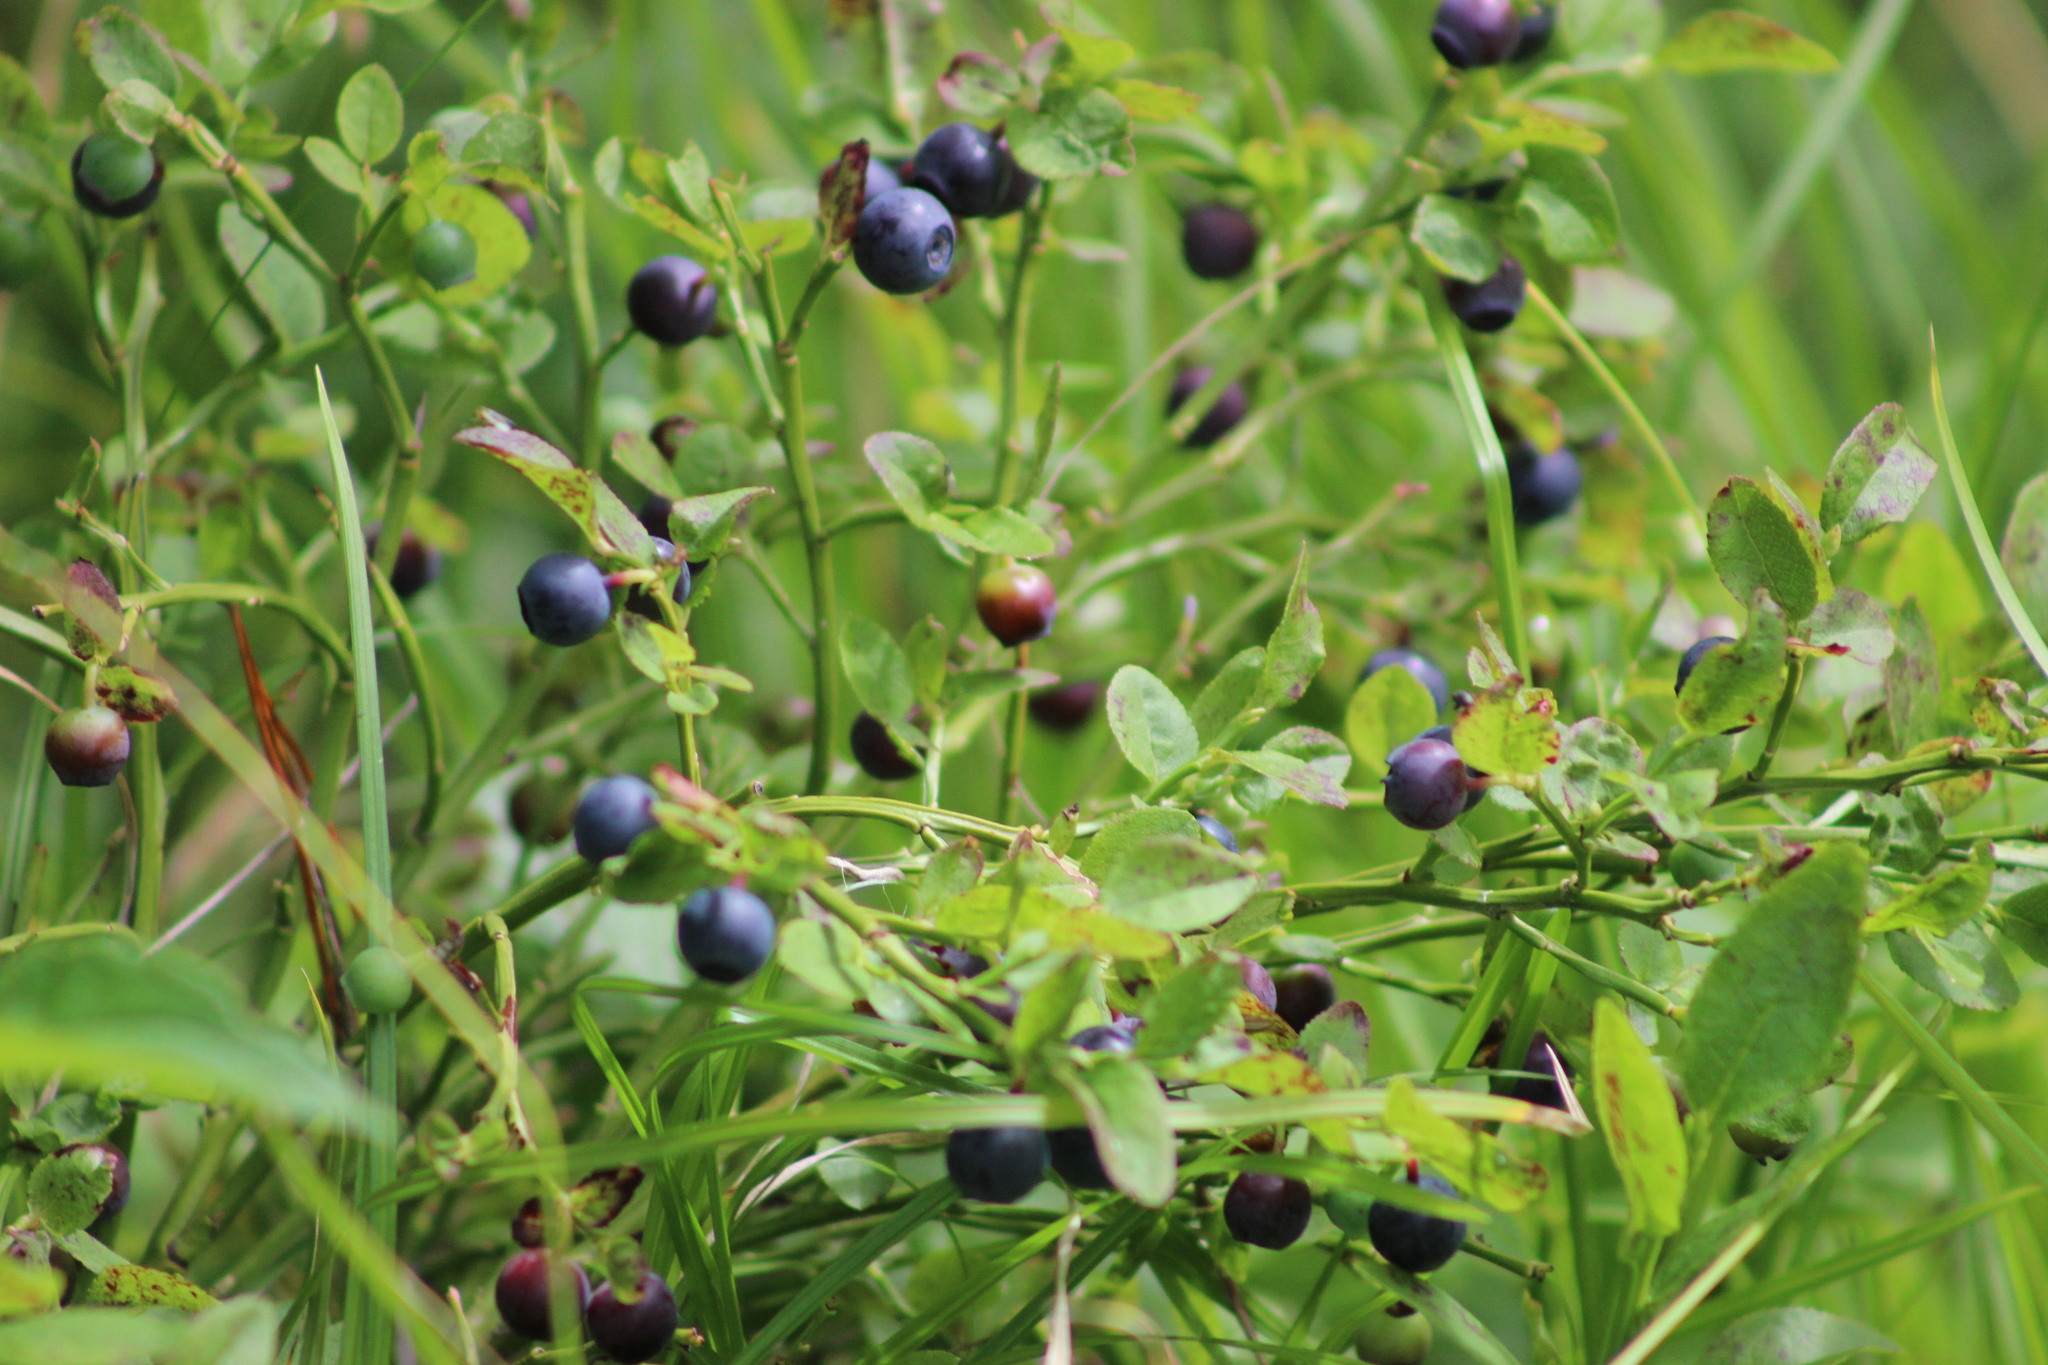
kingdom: Plantae
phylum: Tracheophyta
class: Magnoliopsida
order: Ericales
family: Ericaceae
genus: Vaccinium
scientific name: Vaccinium myrtillus
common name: Bilberry
